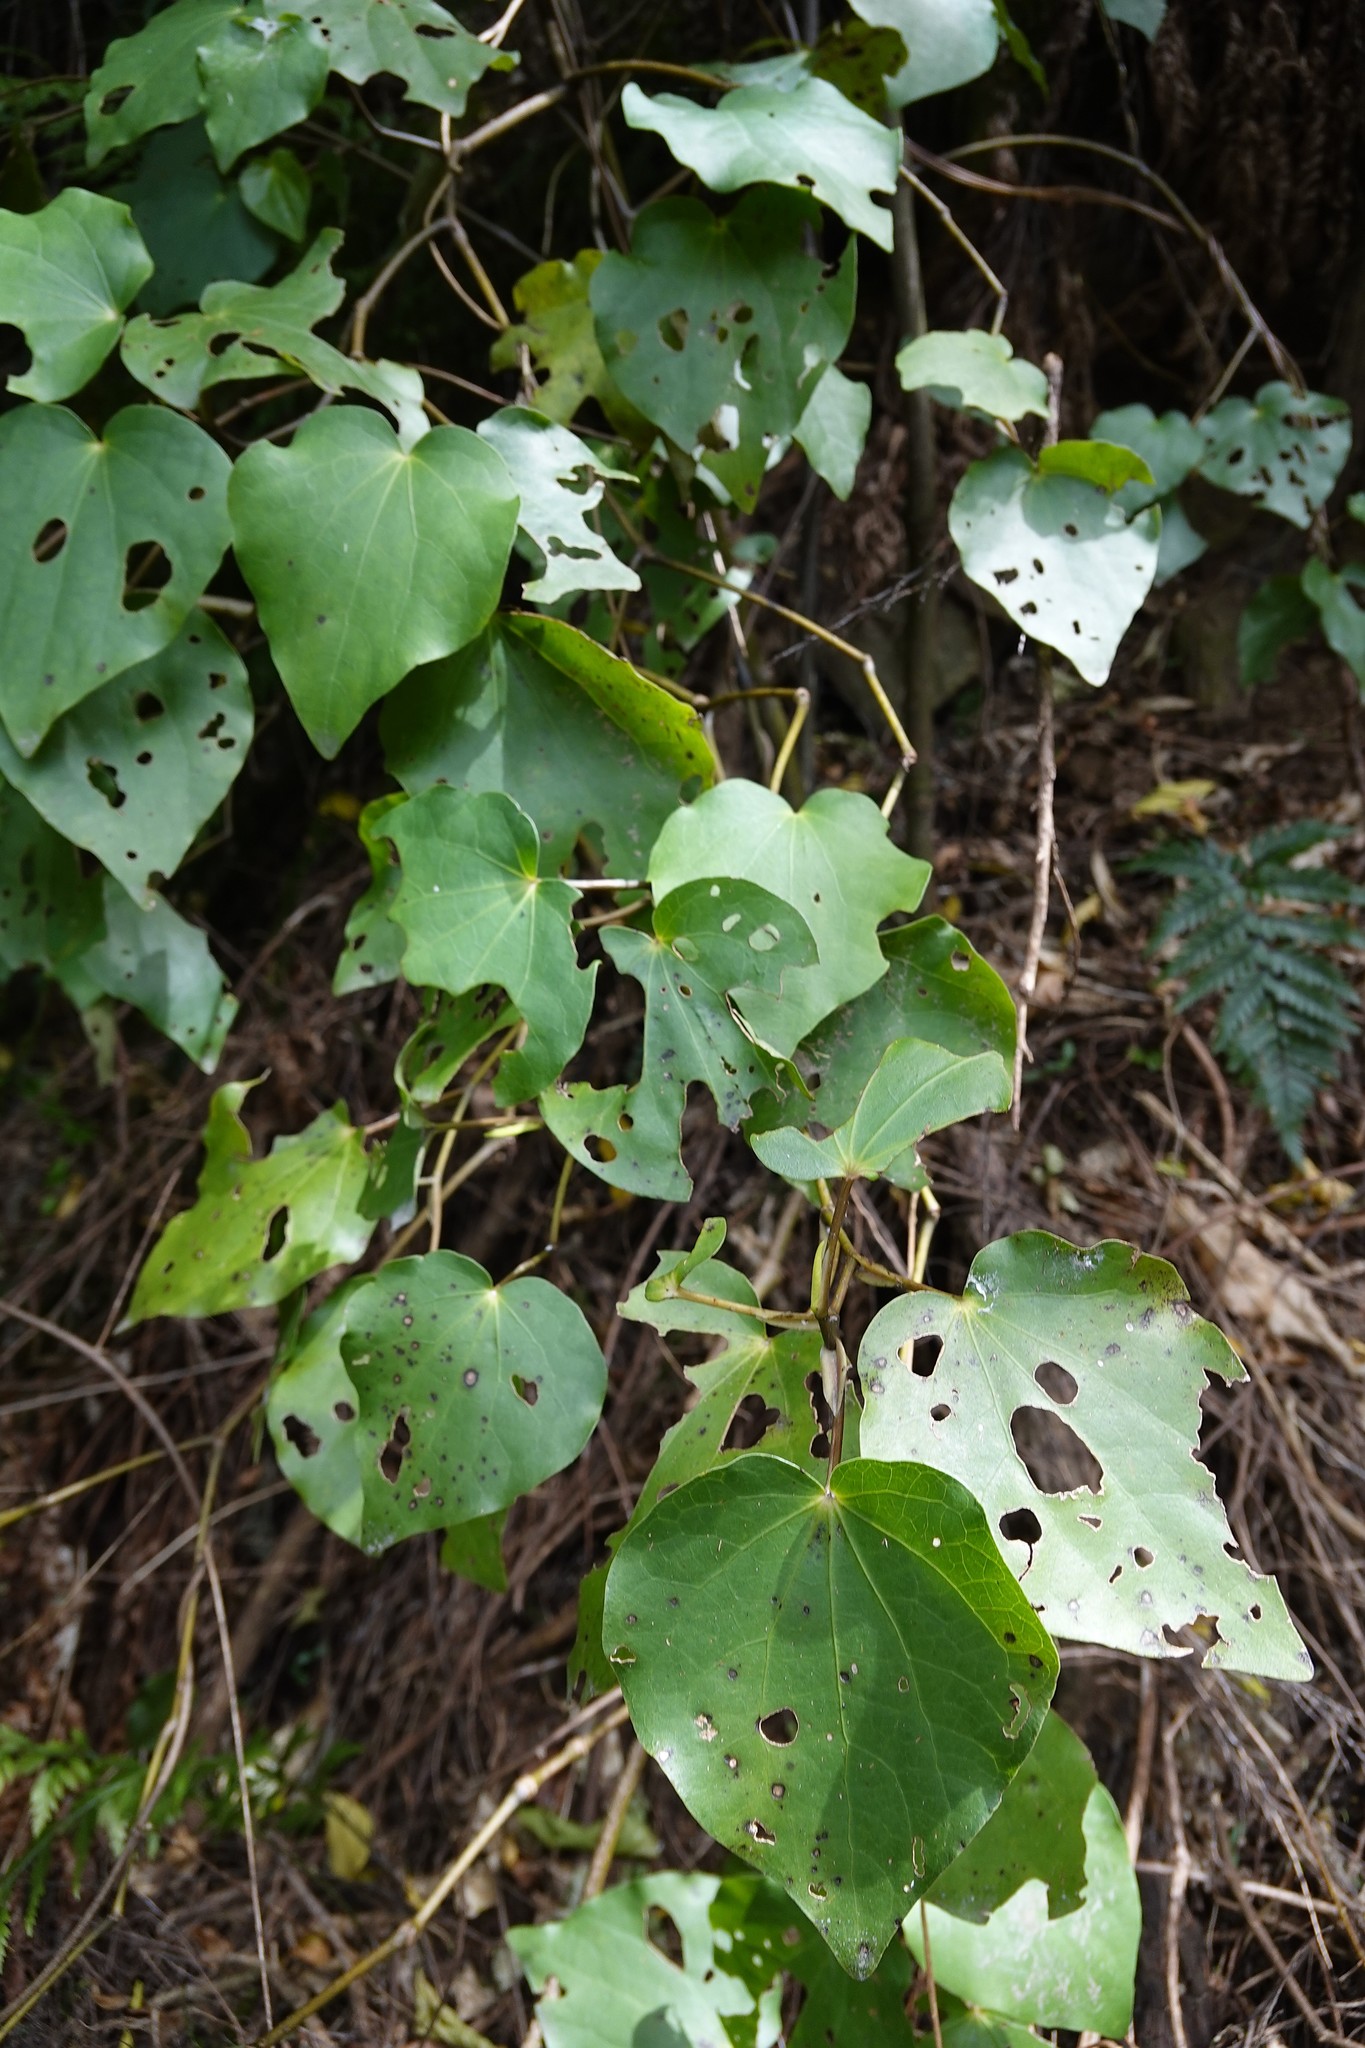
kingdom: Plantae
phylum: Tracheophyta
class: Magnoliopsida
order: Piperales
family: Piperaceae
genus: Macropiper
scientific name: Macropiper excelsum
